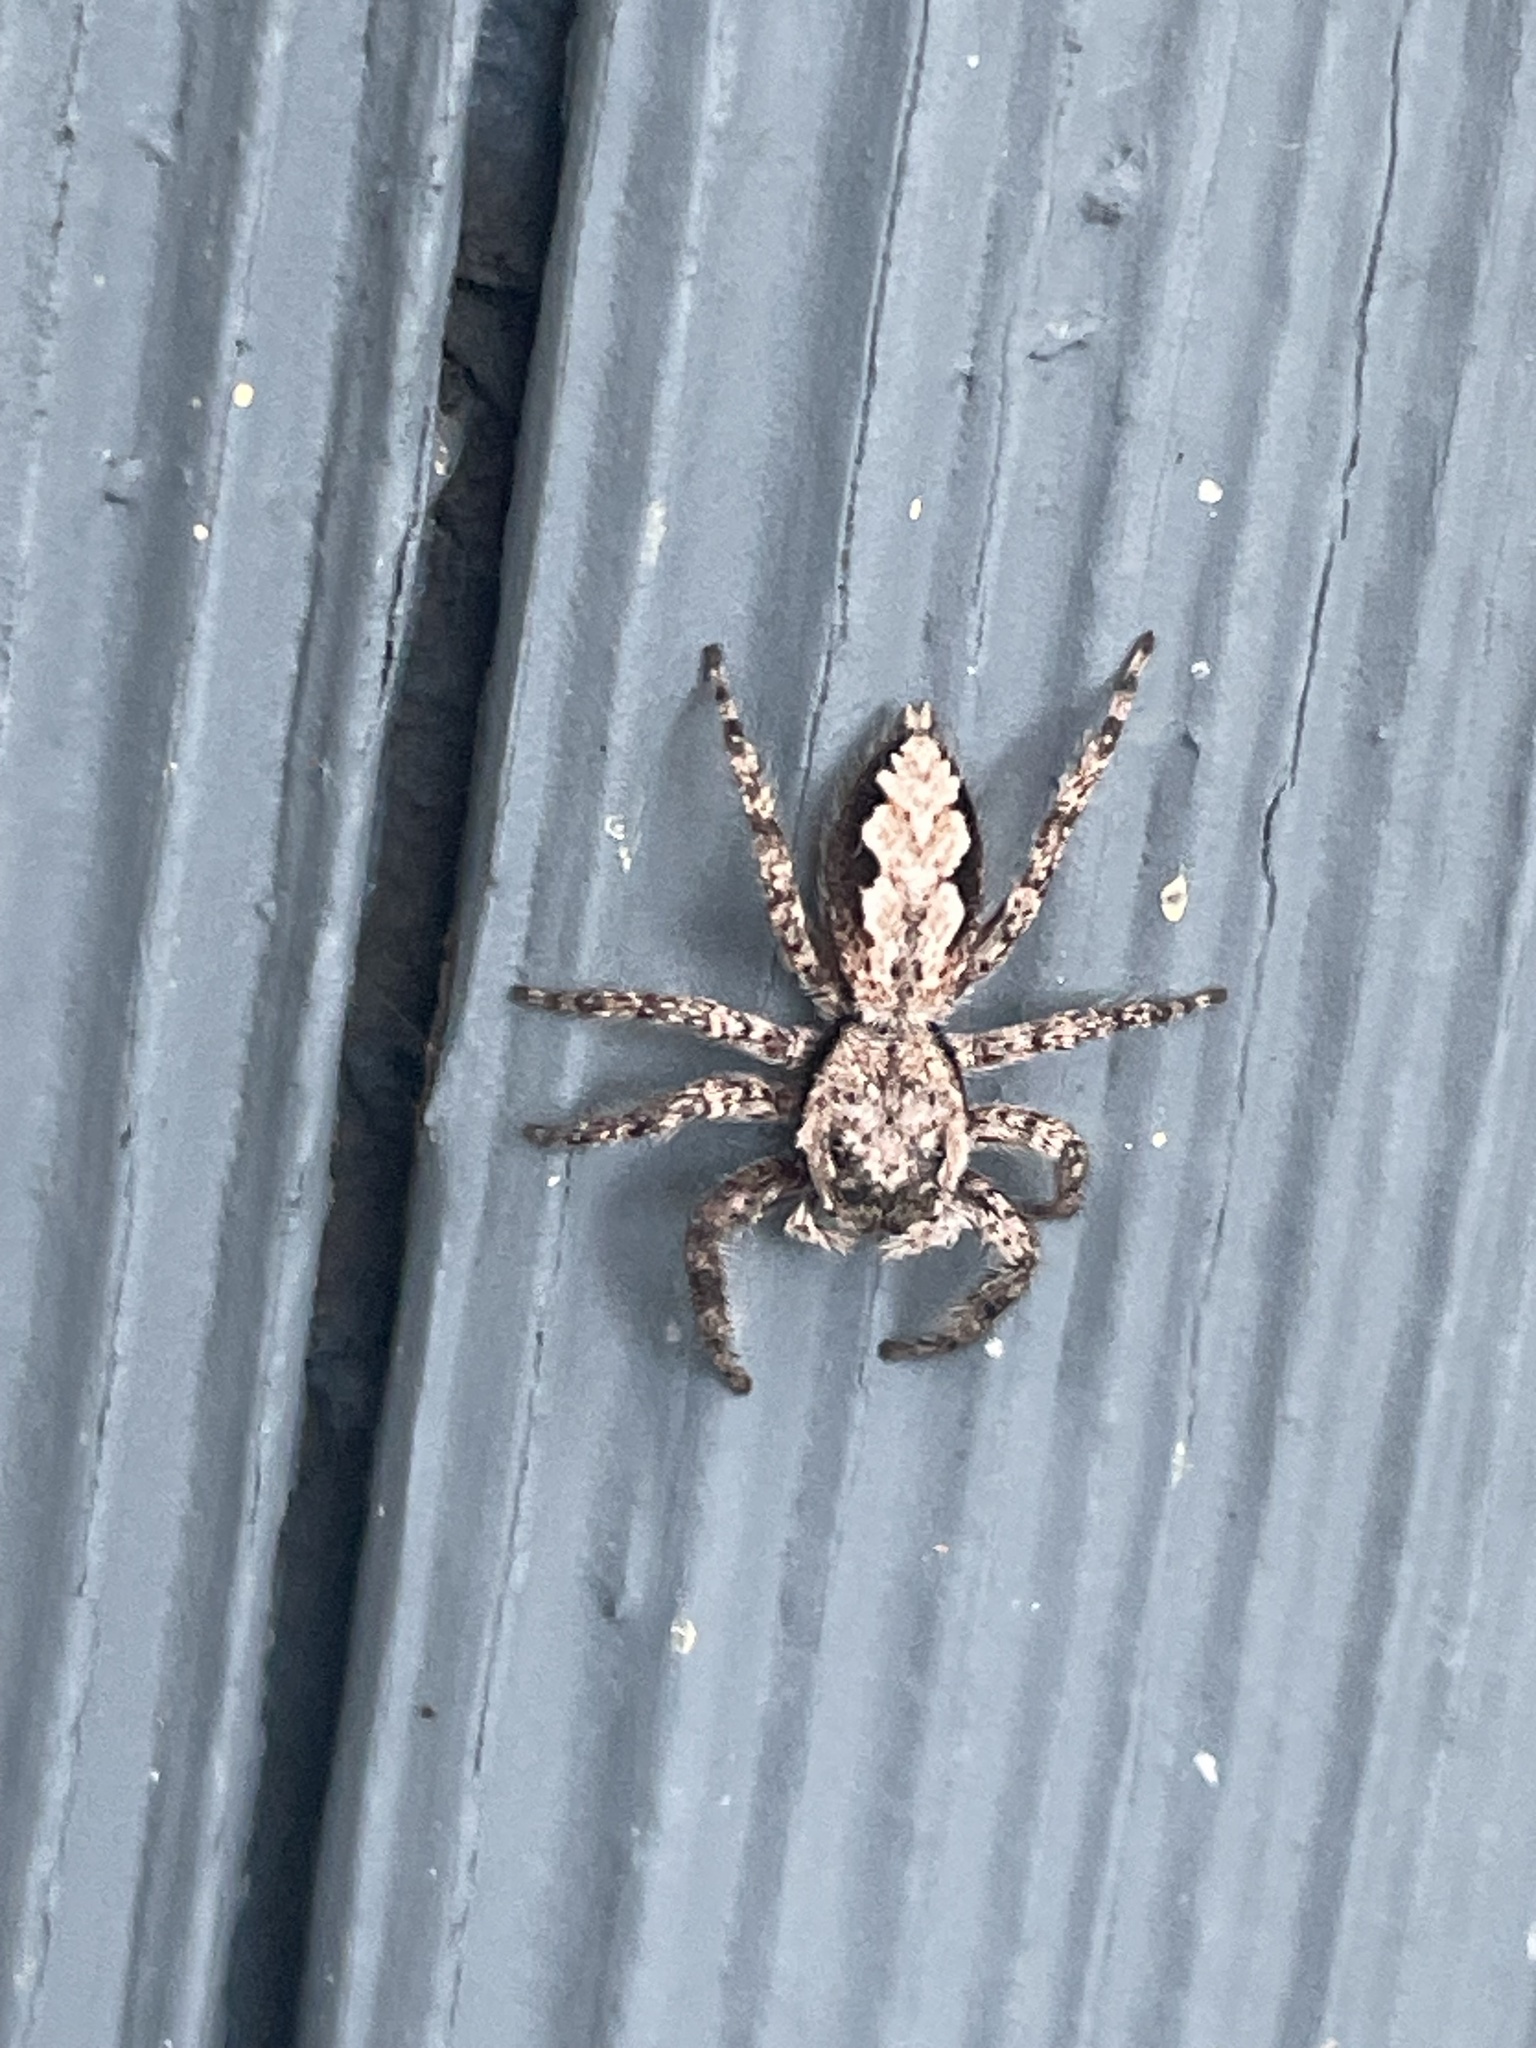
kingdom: Animalia
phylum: Arthropoda
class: Arachnida
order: Araneae
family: Salticidae
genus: Platycryptus
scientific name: Platycryptus undatus
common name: Tan jumping spider
